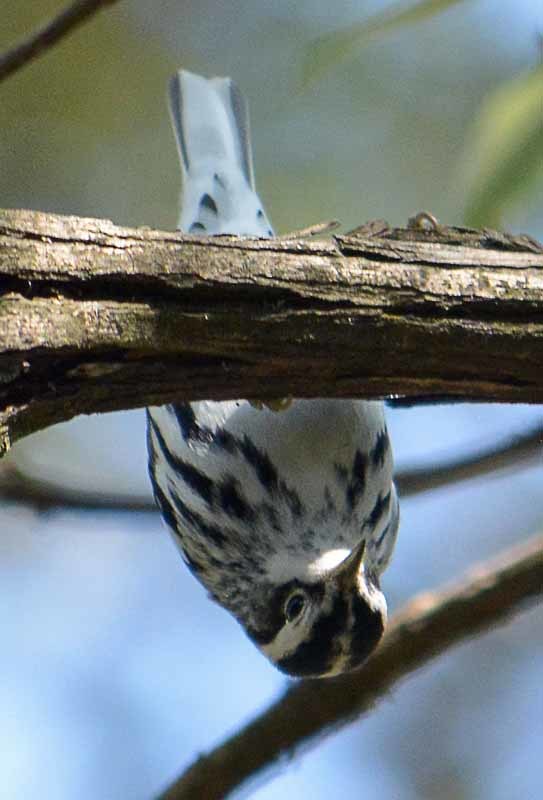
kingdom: Animalia
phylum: Chordata
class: Aves
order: Passeriformes
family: Parulidae
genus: Mniotilta
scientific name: Mniotilta varia
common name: Black-and-white warbler
